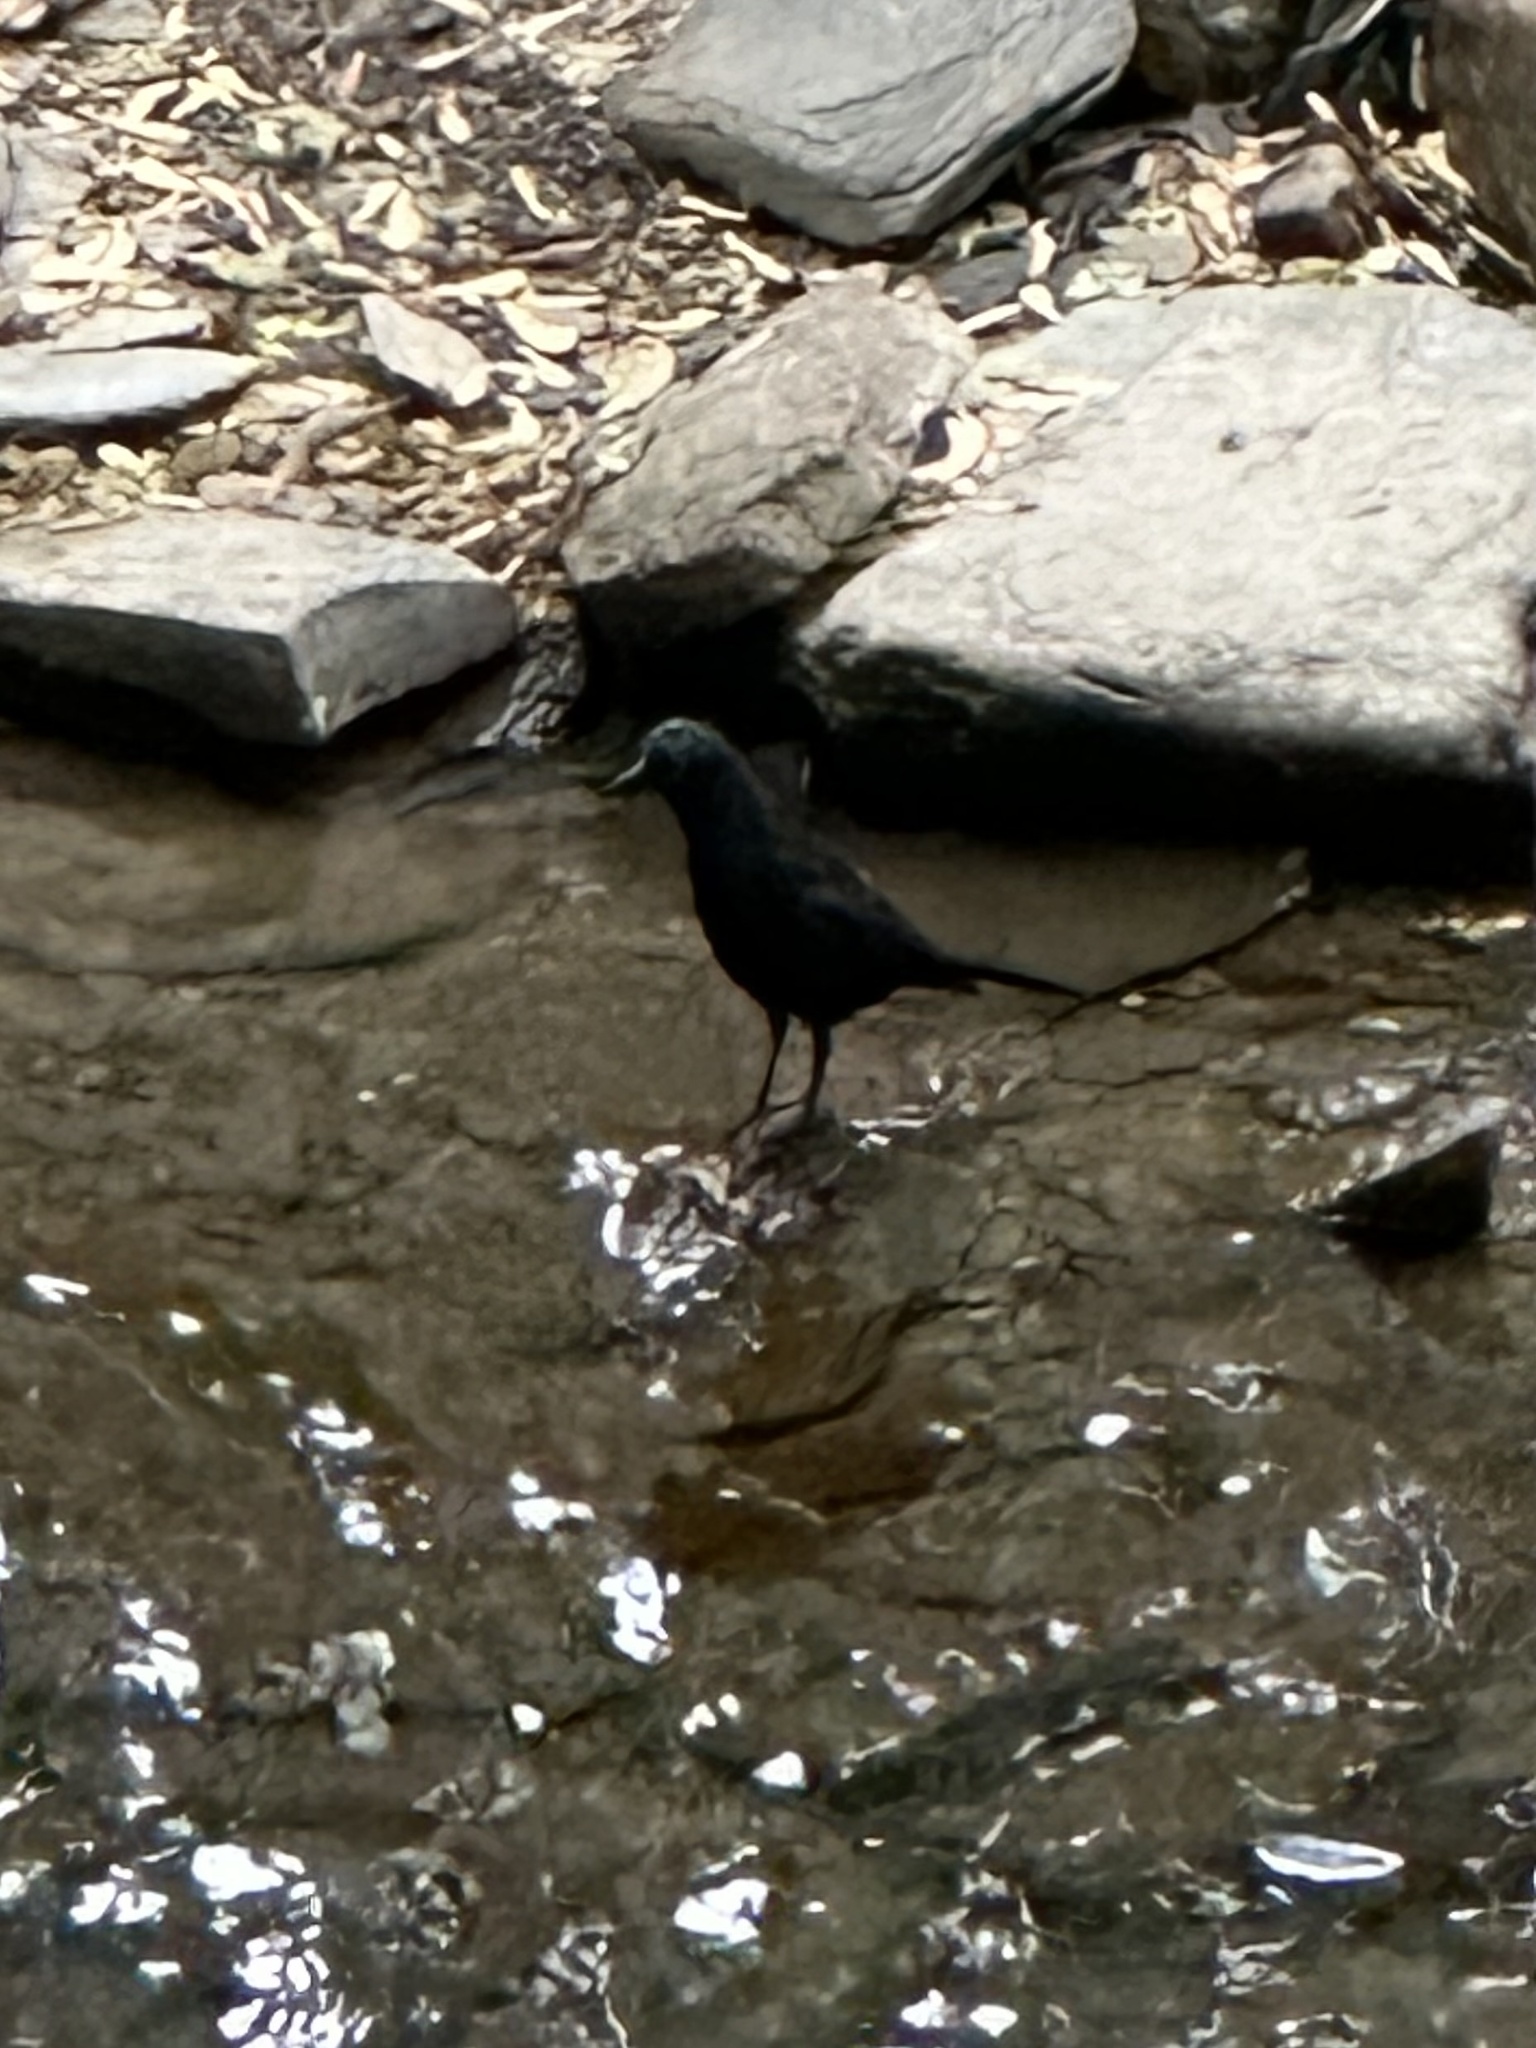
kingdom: Animalia
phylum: Chordata
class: Aves
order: Passeriformes
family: Icteridae
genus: Quiscalus
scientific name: Quiscalus quiscula
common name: Common grackle
